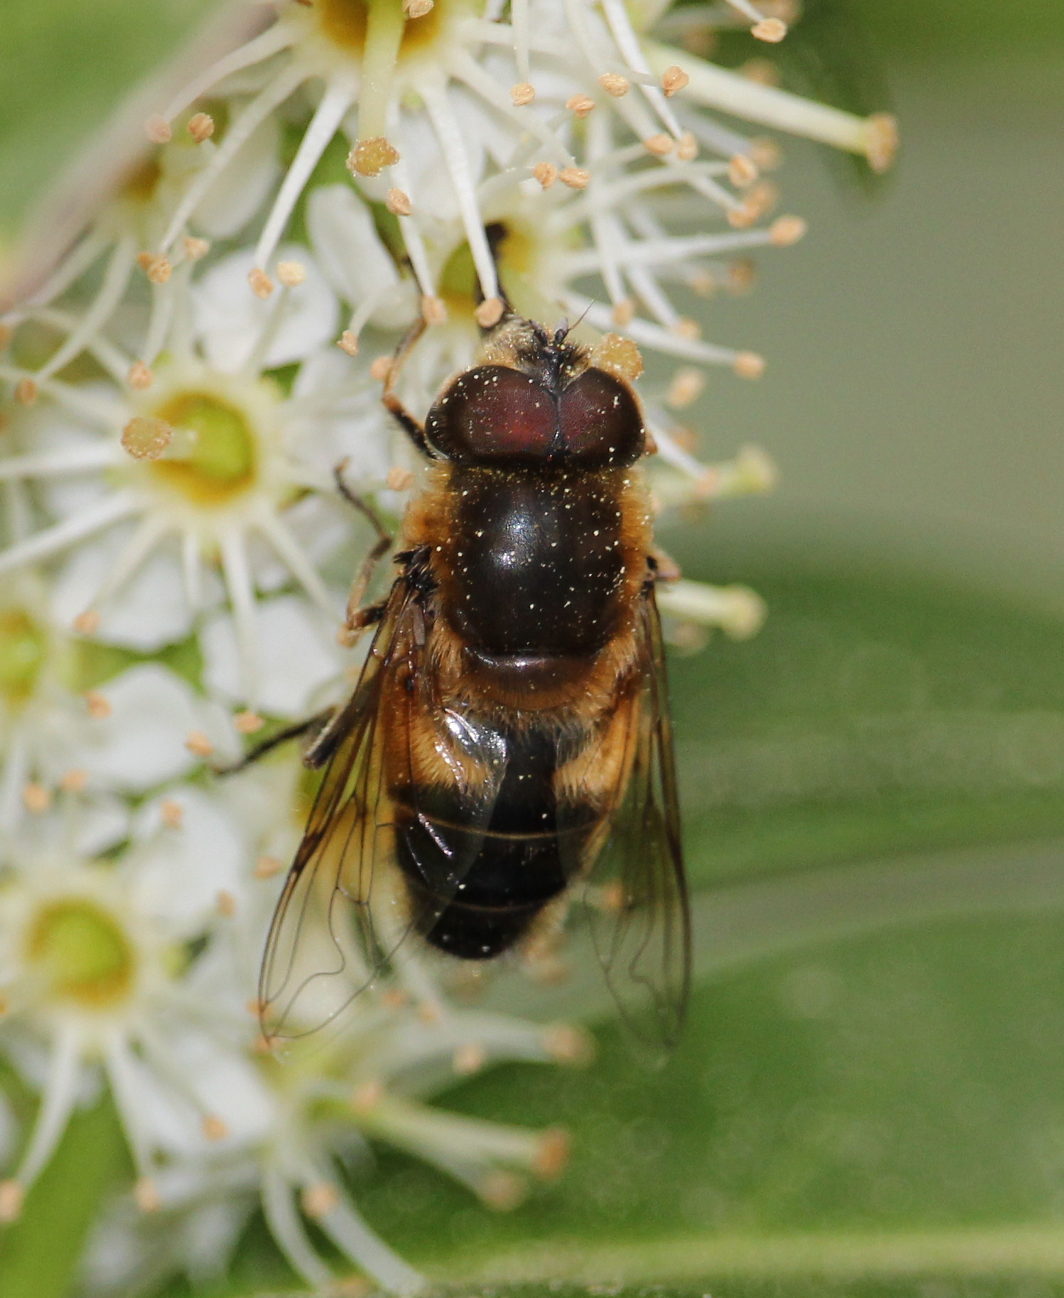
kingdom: Animalia
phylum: Arthropoda
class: Insecta
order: Diptera
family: Syrphidae
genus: Eristalis
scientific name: Eristalis pertinax
